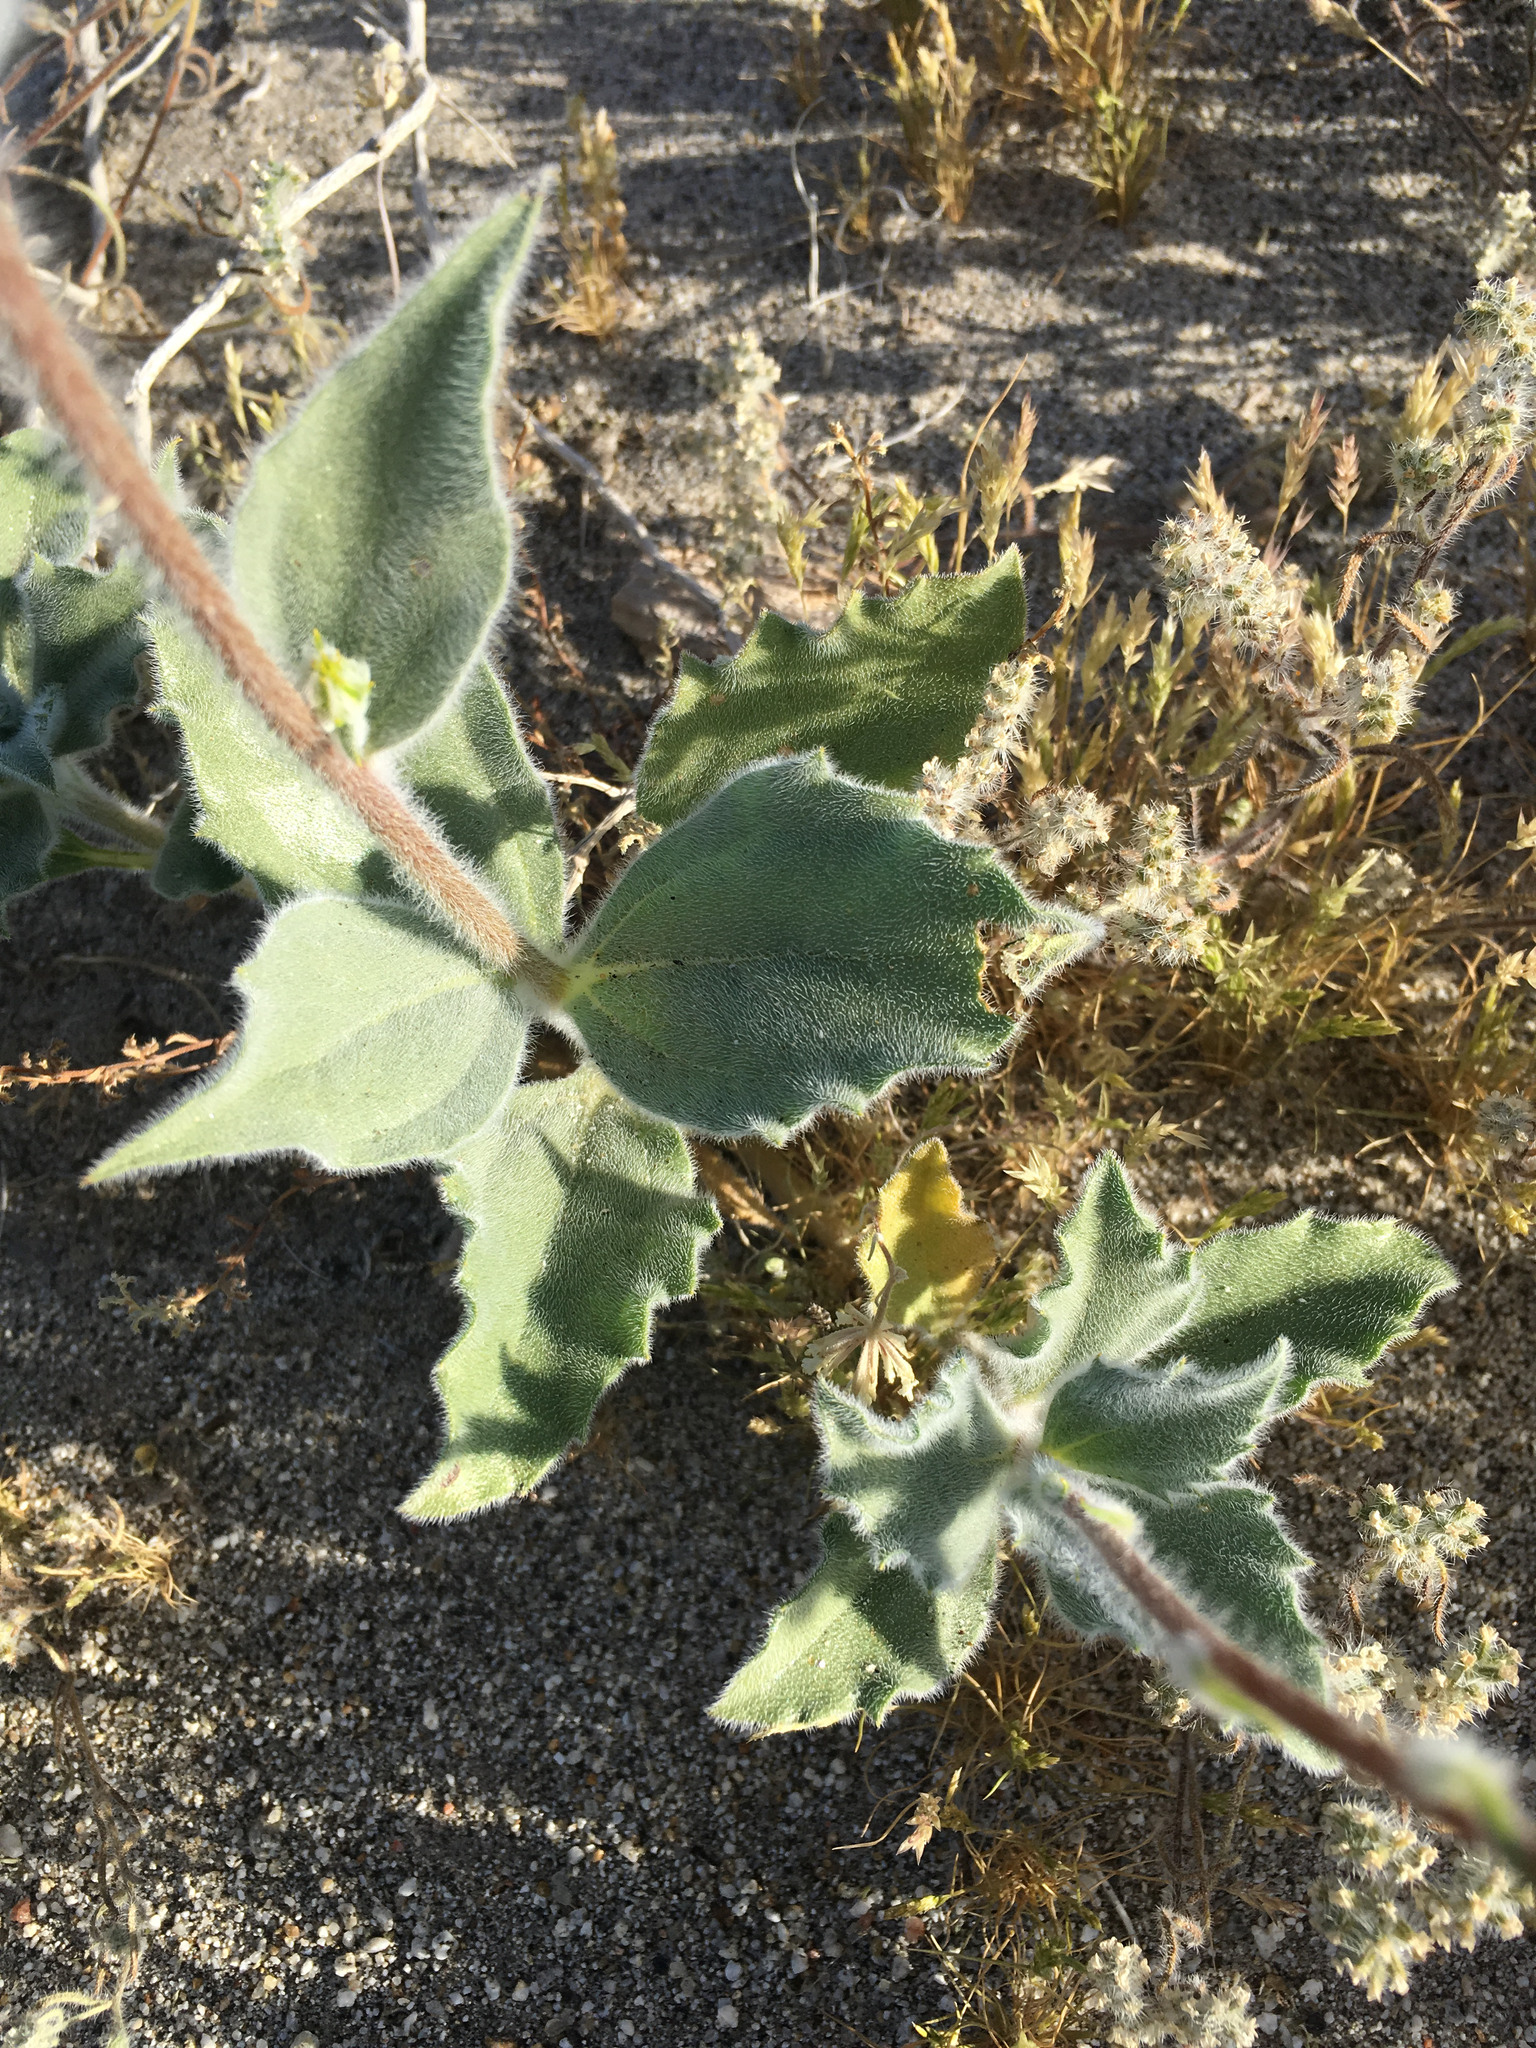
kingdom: Plantae
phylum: Tracheophyta
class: Magnoliopsida
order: Asterales
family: Asteraceae
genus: Geraea
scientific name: Geraea canescens
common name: Desert-gold
